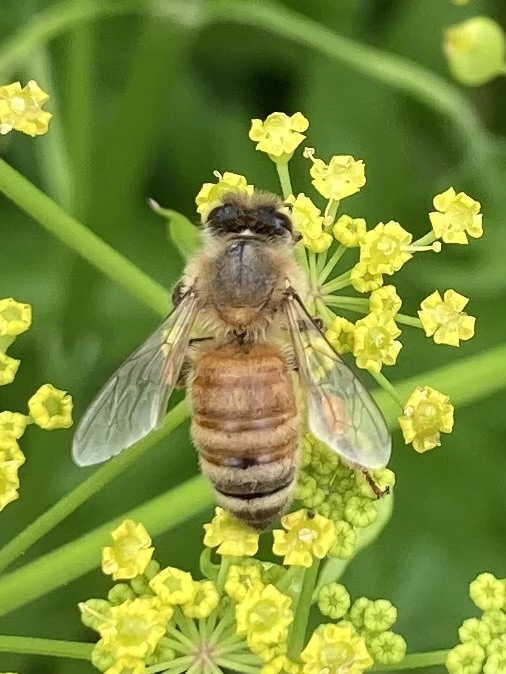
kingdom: Animalia
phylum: Arthropoda
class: Insecta
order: Hymenoptera
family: Apidae
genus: Apis
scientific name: Apis mellifera
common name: Honey bee
